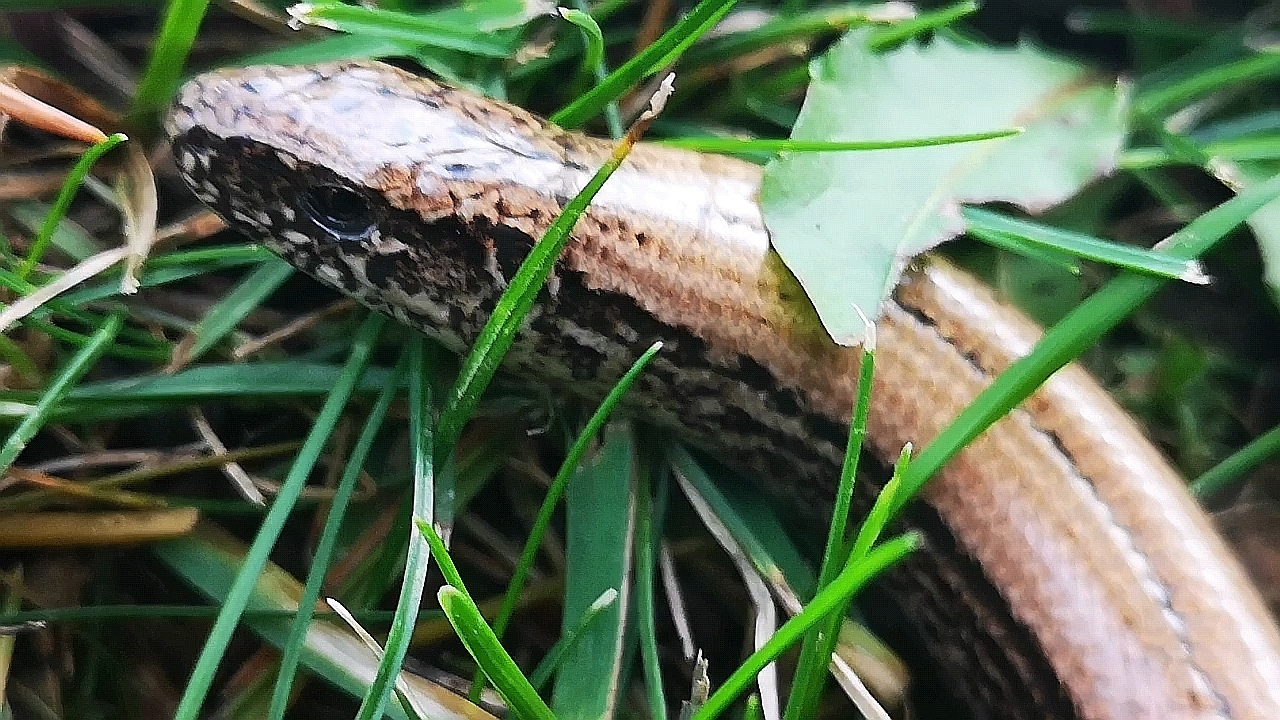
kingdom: Animalia
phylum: Chordata
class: Squamata
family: Anguidae
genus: Anguis
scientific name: Anguis fragilis
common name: Slow worm
